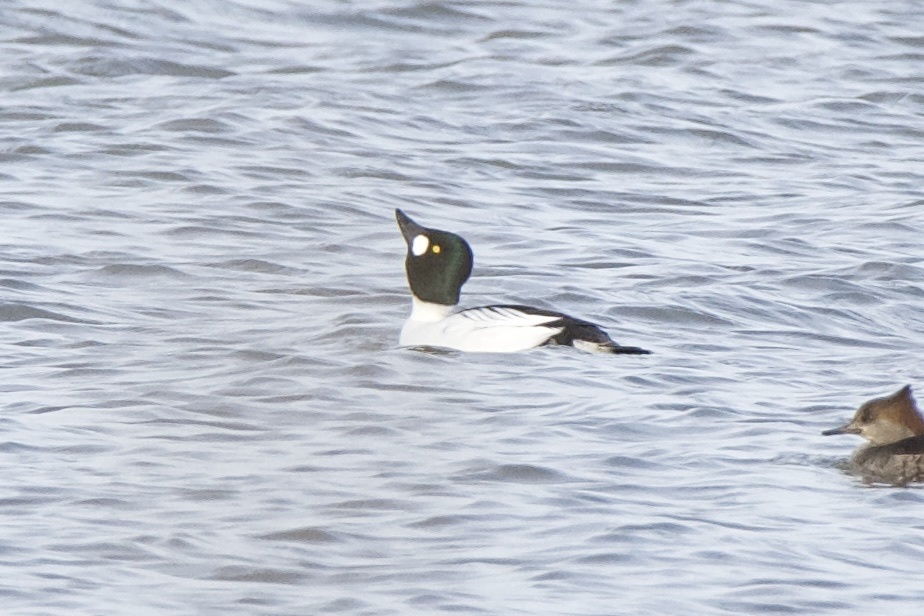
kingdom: Animalia
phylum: Chordata
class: Aves
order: Anseriformes
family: Anatidae
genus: Bucephala
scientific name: Bucephala clangula
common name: Common goldeneye
